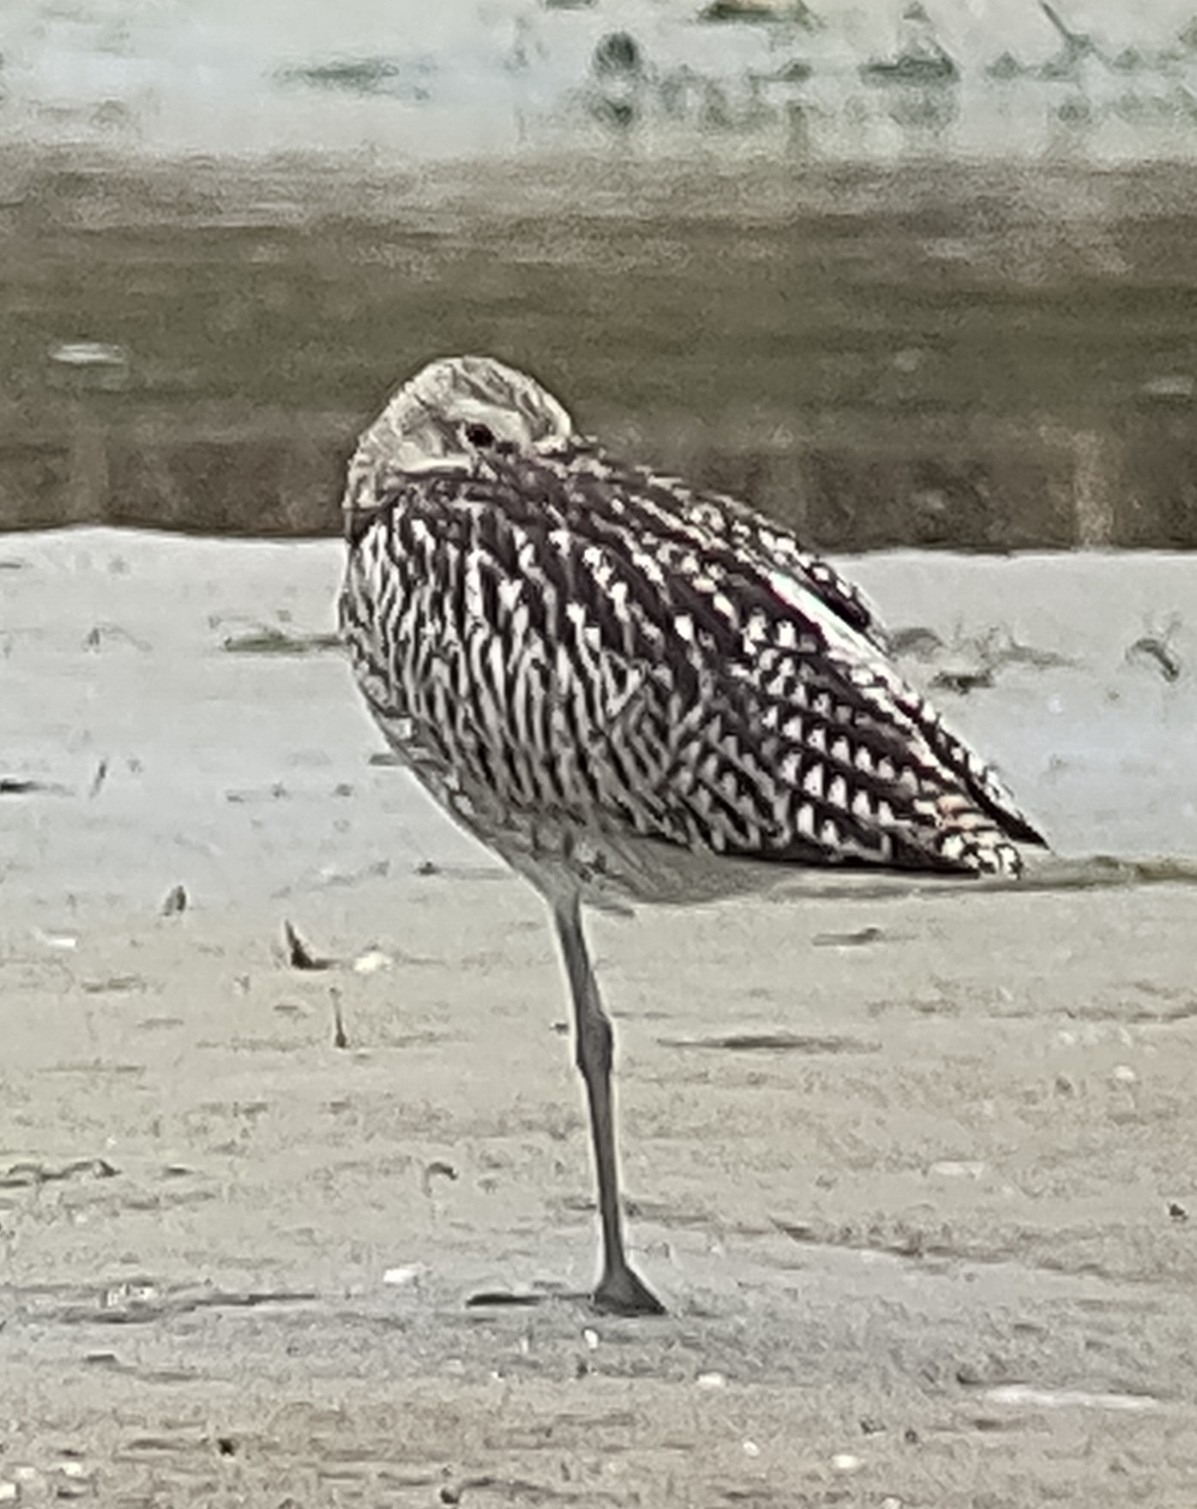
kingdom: Animalia
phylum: Chordata
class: Aves
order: Charadriiformes
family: Scolopacidae
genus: Numenius
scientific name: Numenius arquata
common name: Eurasian curlew
